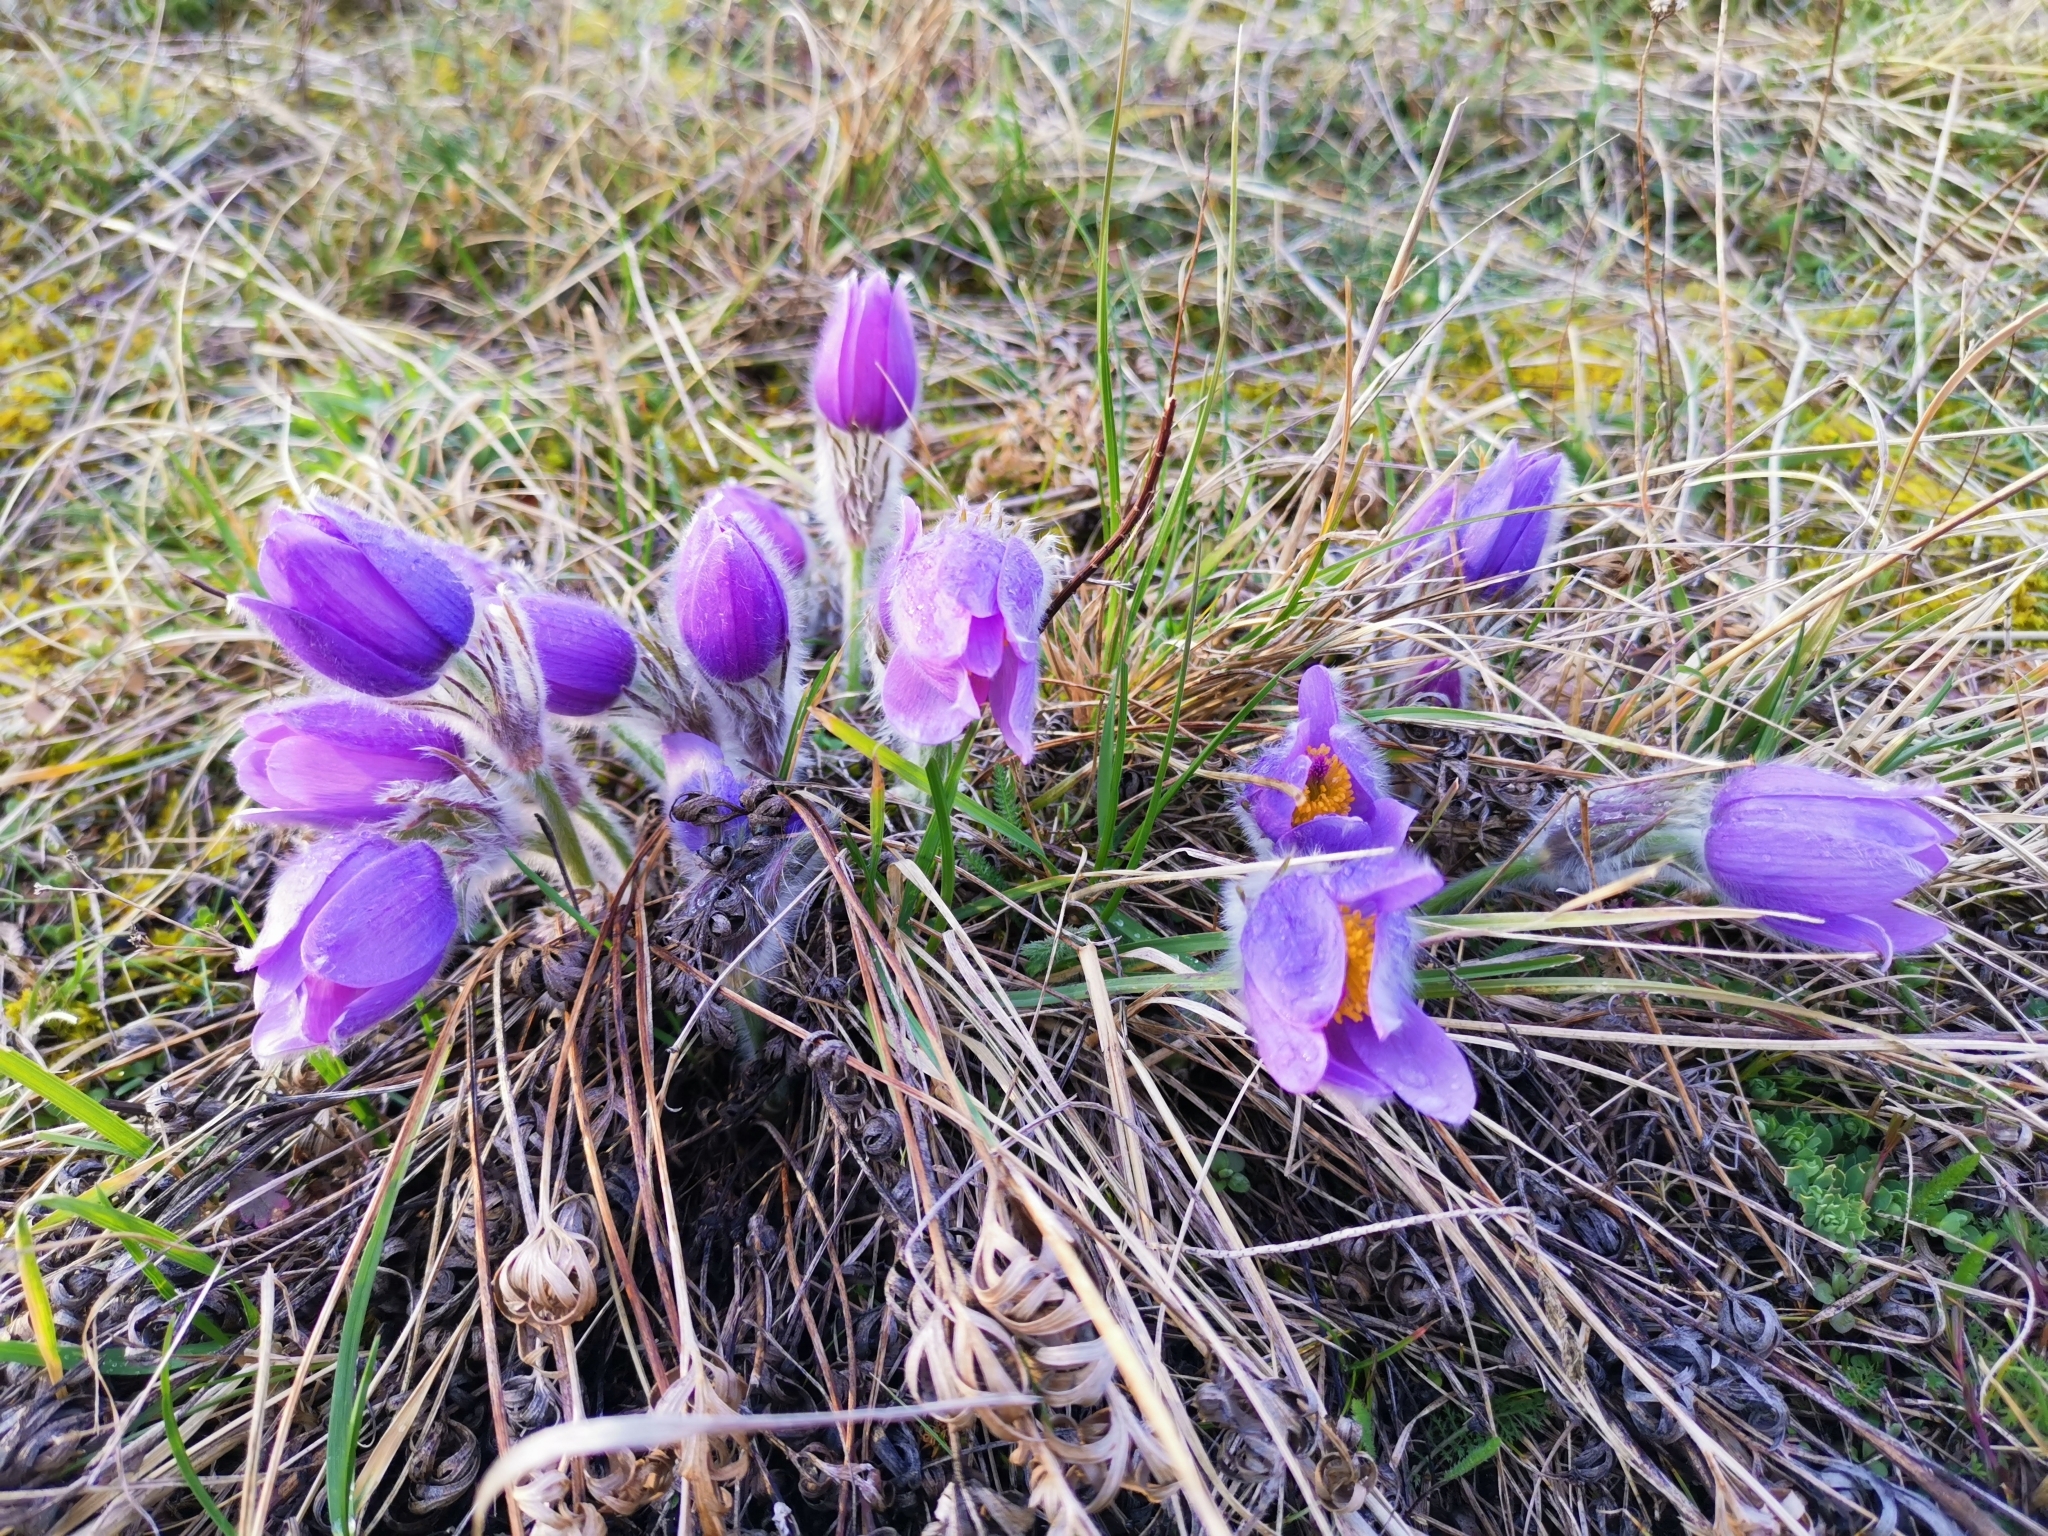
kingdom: Plantae
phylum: Tracheophyta
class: Magnoliopsida
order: Ranunculales
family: Ranunculaceae
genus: Pulsatilla
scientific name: Pulsatilla grandis
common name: Greater pasque flower
